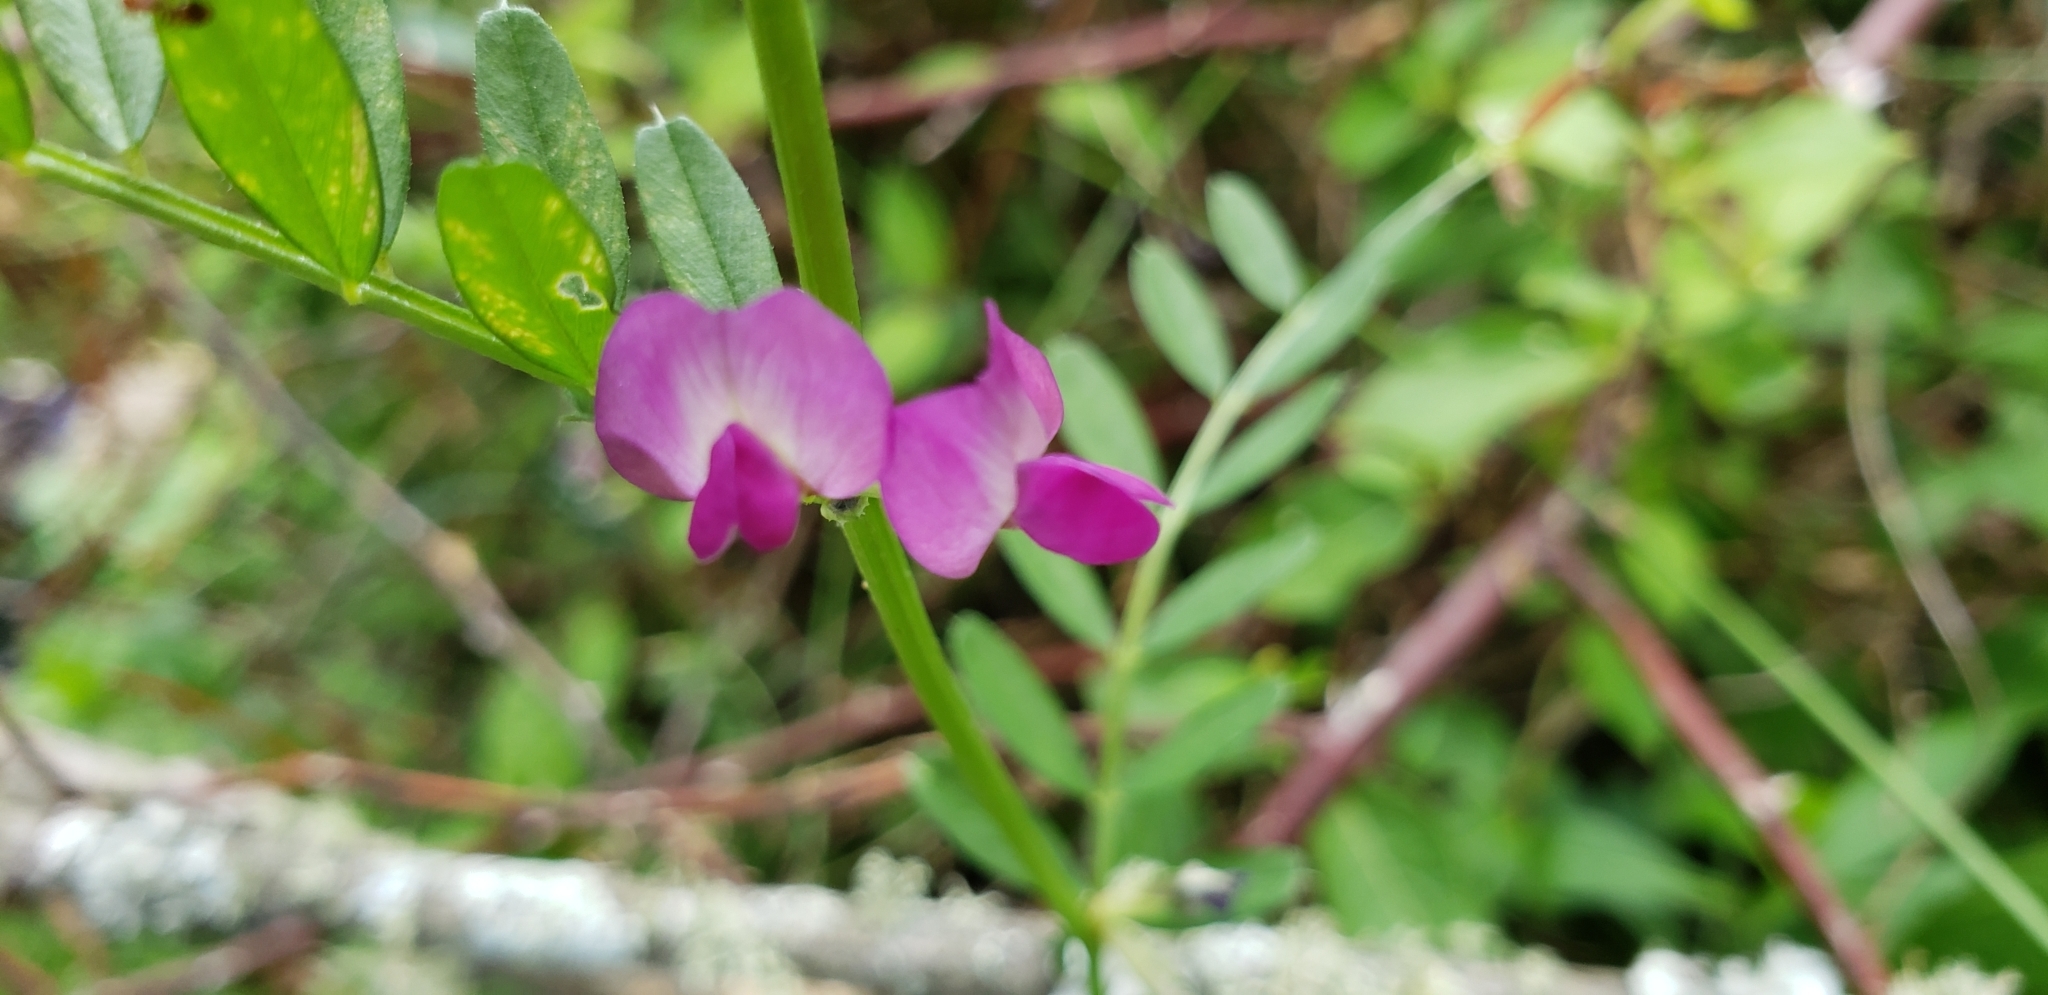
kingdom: Plantae
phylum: Tracheophyta
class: Magnoliopsida
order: Fabales
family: Fabaceae
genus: Vicia
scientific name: Vicia sativa
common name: Garden vetch
